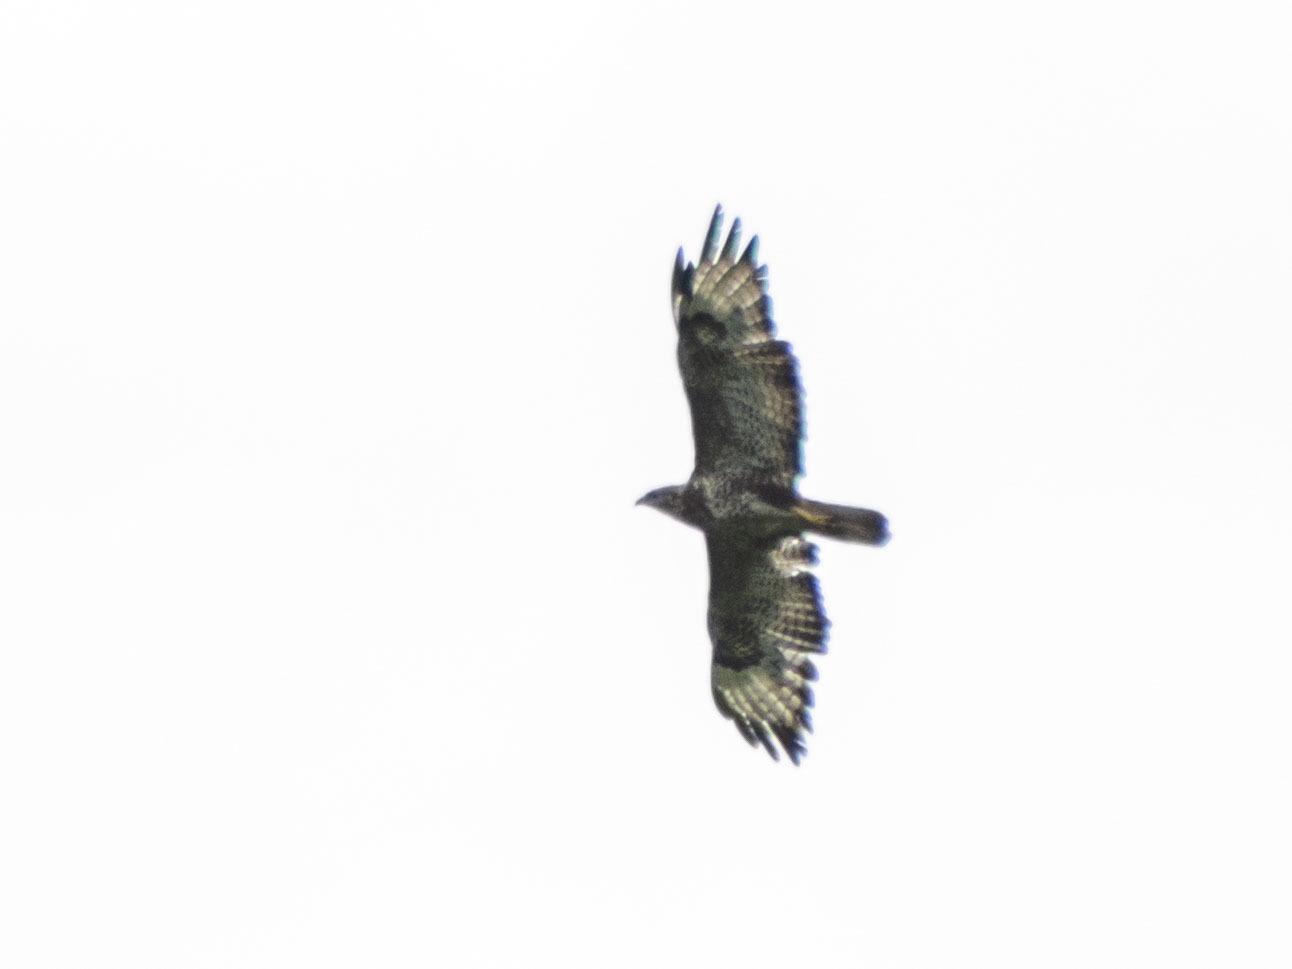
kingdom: Animalia
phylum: Chordata
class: Aves
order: Accipitriformes
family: Accipitridae
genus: Buteo
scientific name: Buteo buteo
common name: Common buzzard
